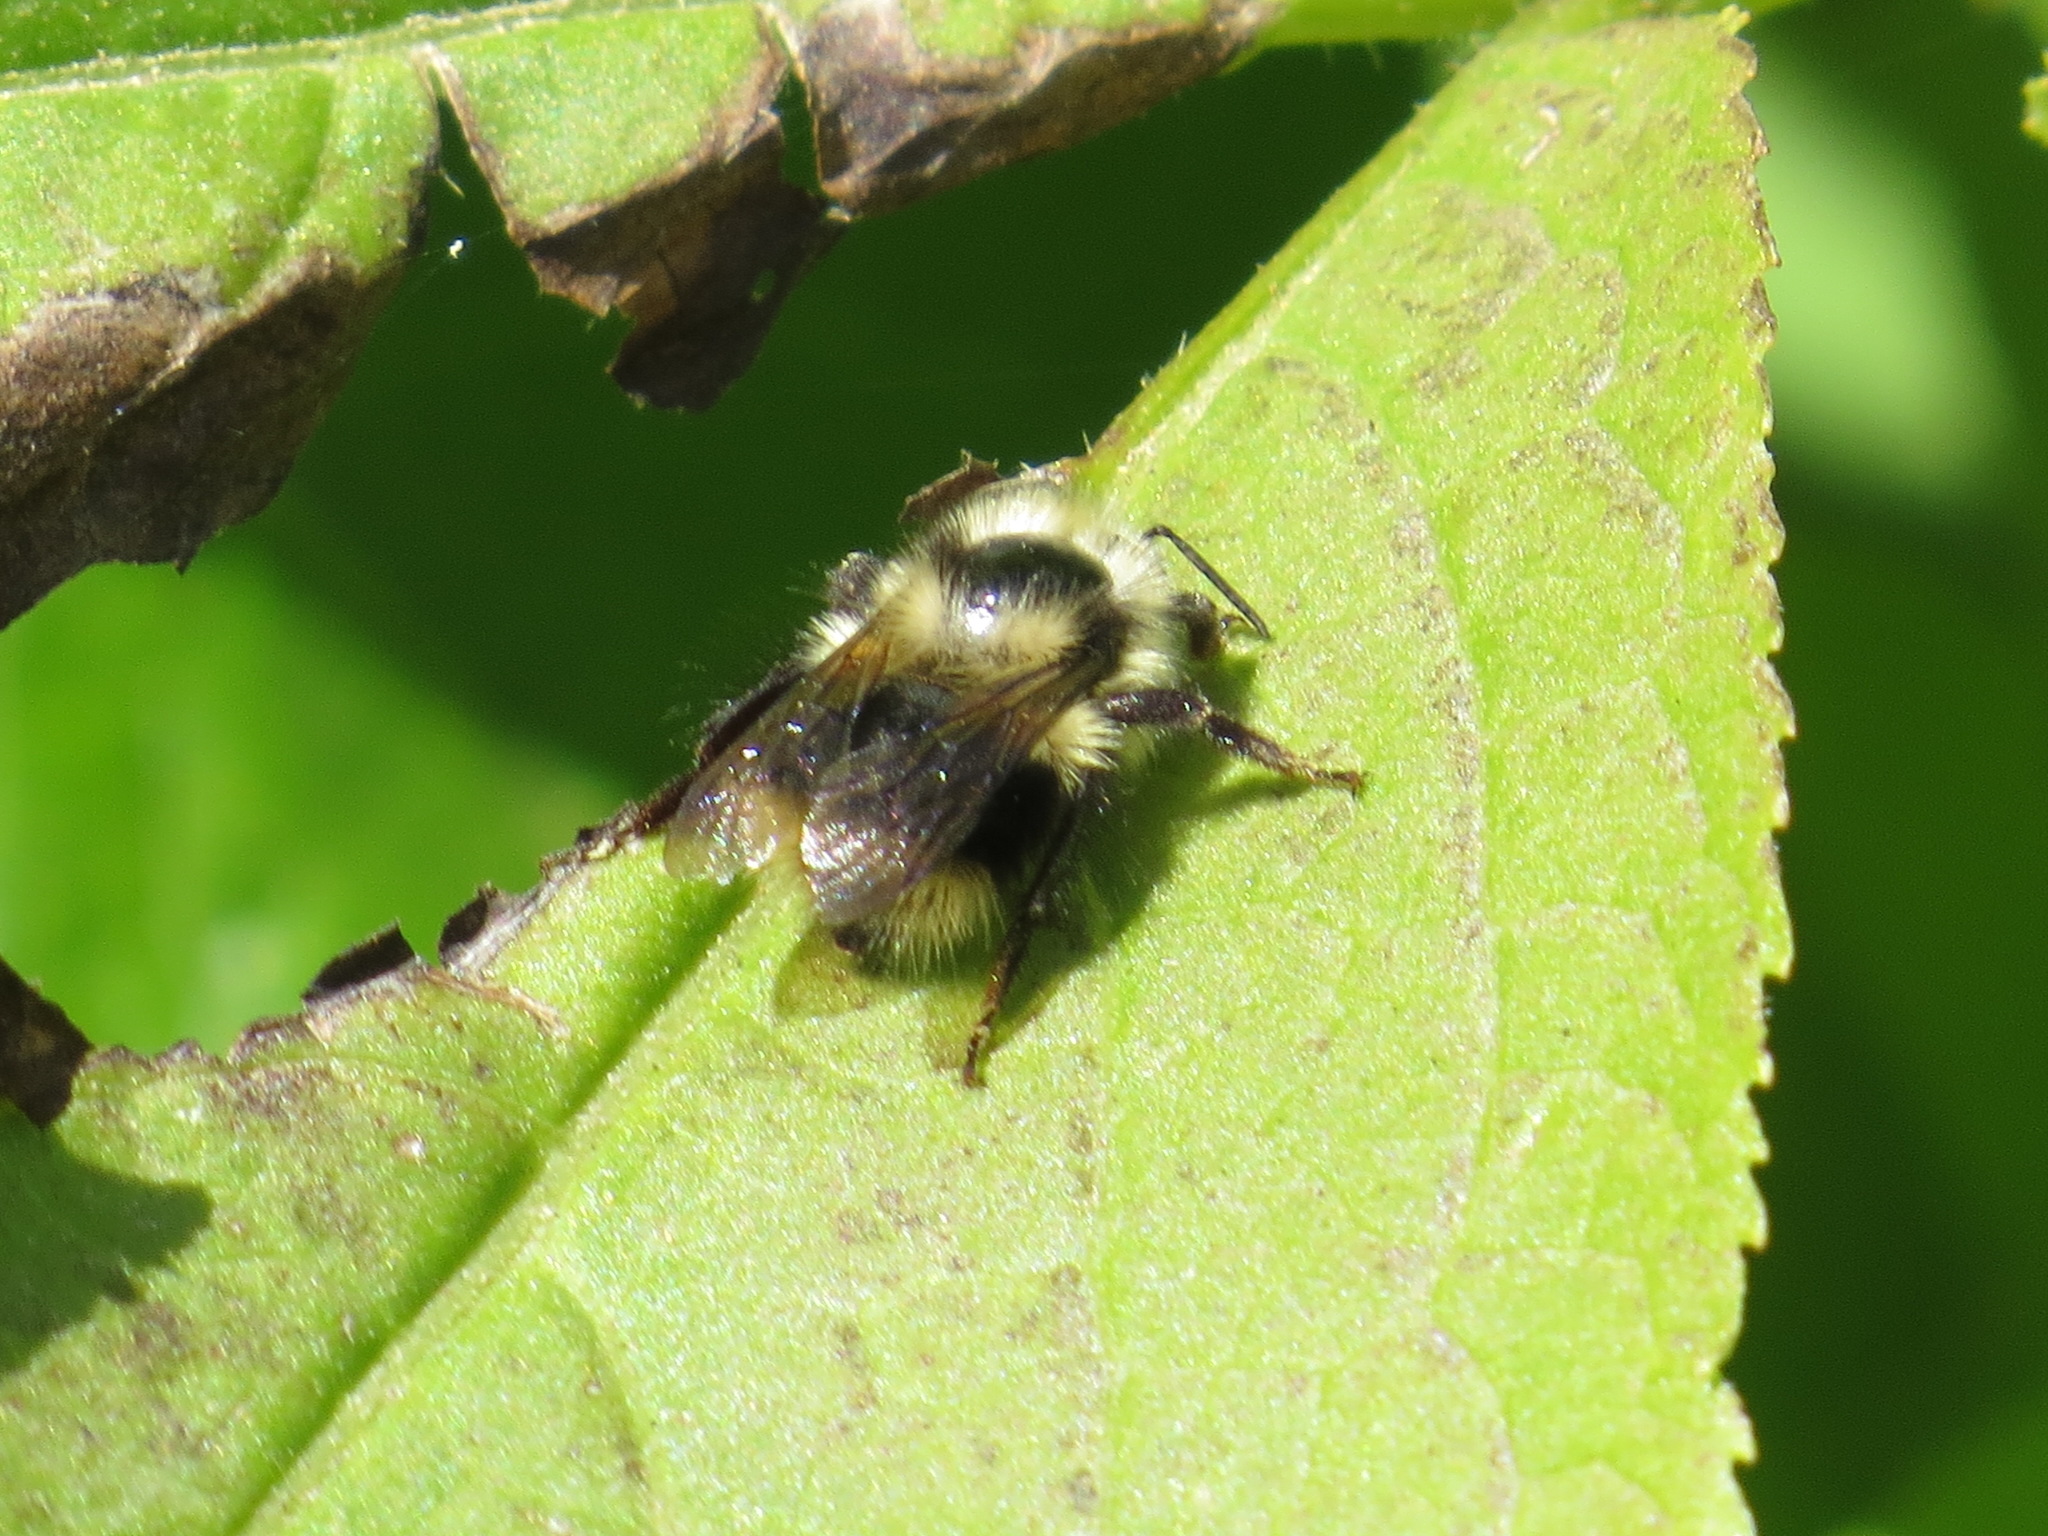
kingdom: Animalia
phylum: Arthropoda
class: Insecta
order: Hymenoptera
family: Apidae
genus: Bombus
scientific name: Bombus melanopygus
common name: Black tail bumble bee
